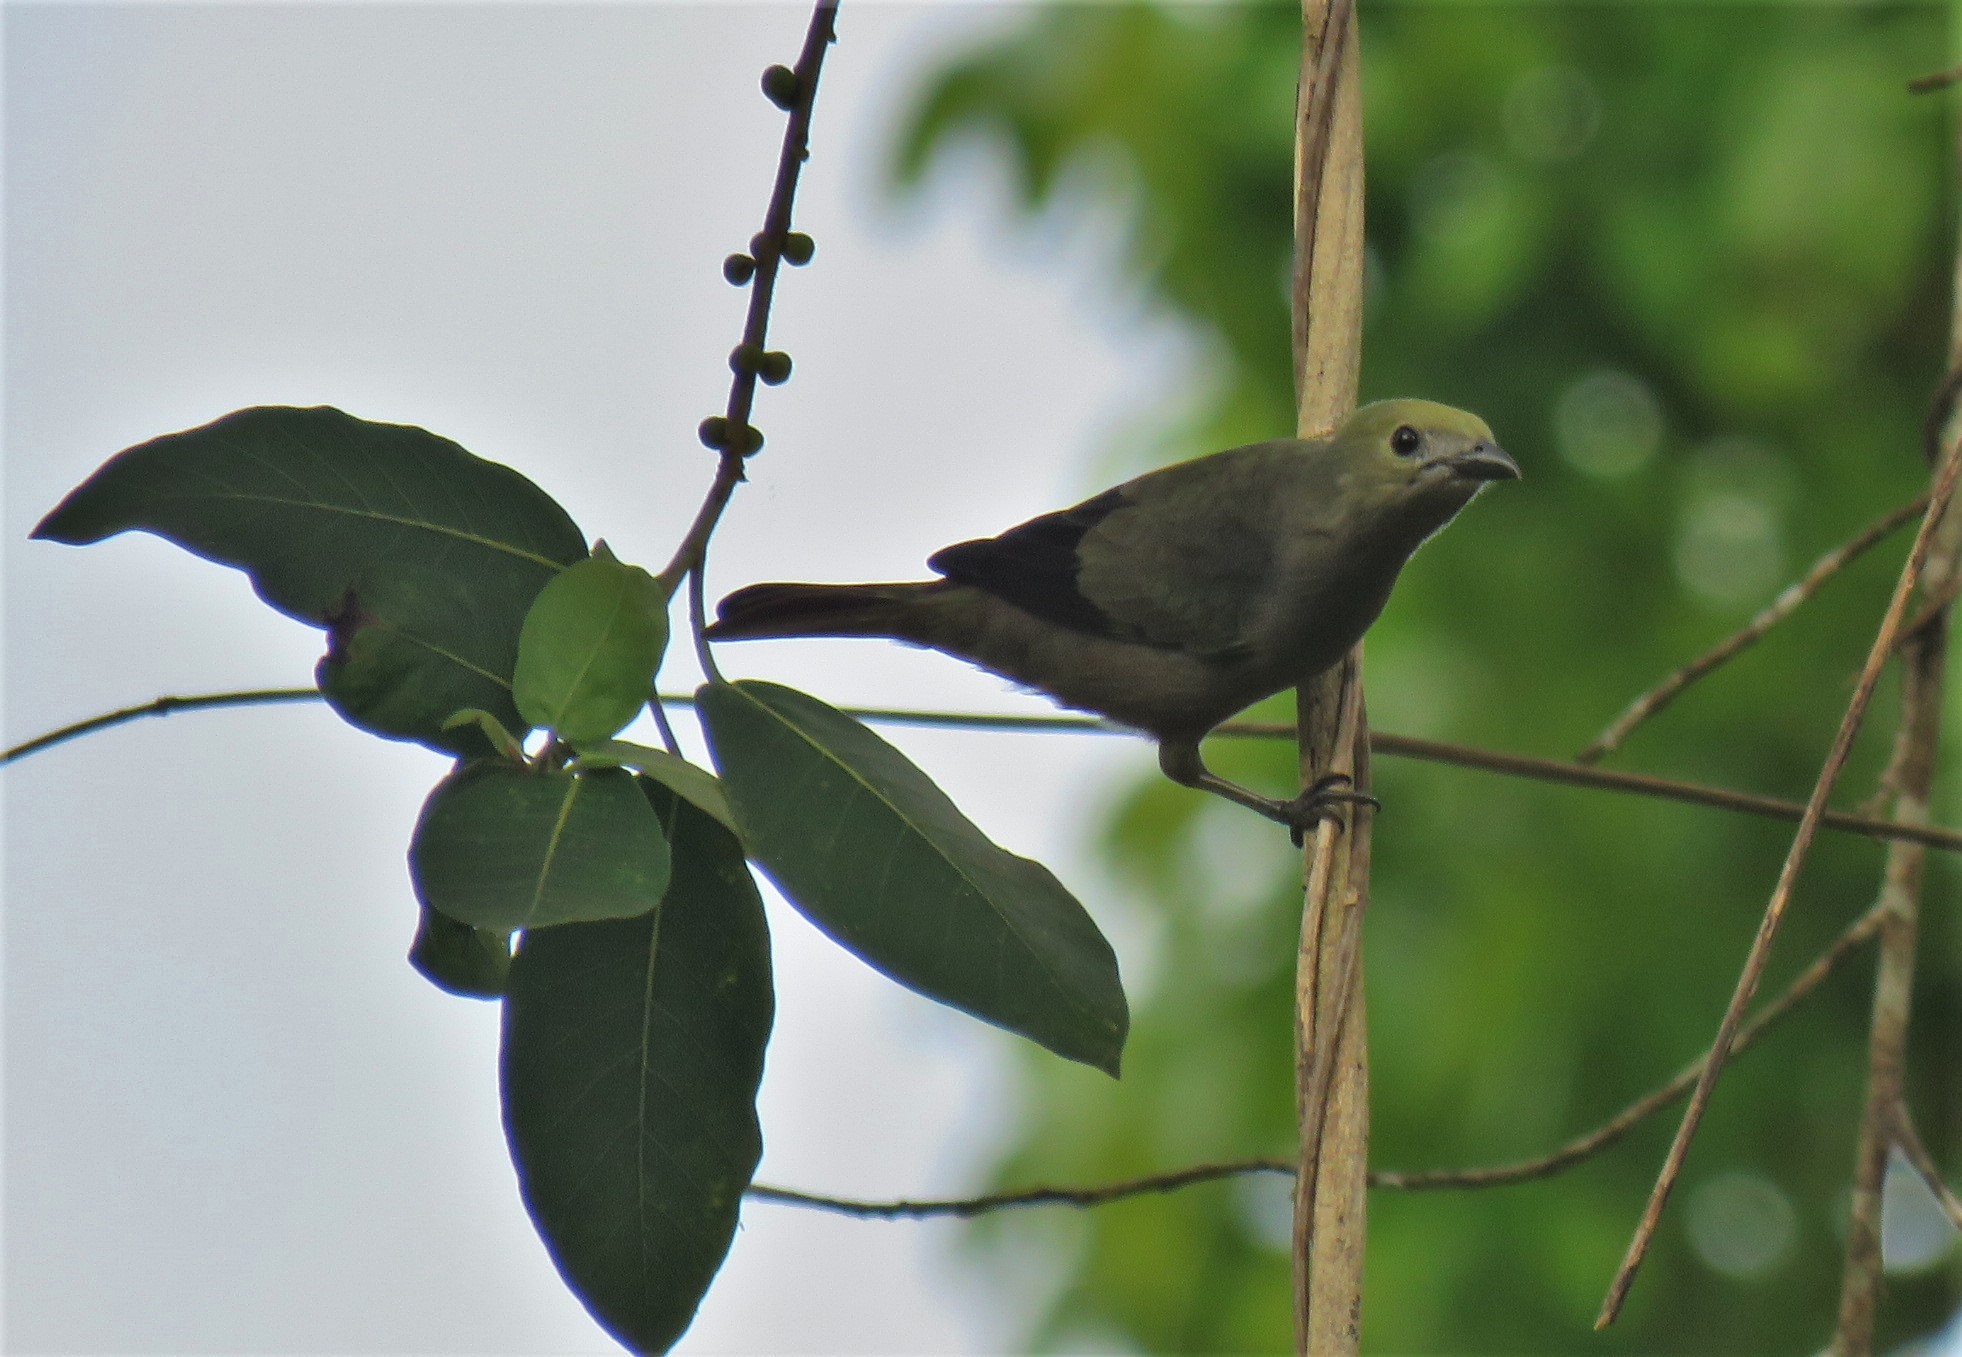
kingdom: Animalia
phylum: Chordata
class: Aves
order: Passeriformes
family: Thraupidae
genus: Thraupis
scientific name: Thraupis palmarum
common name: Palm tanager
